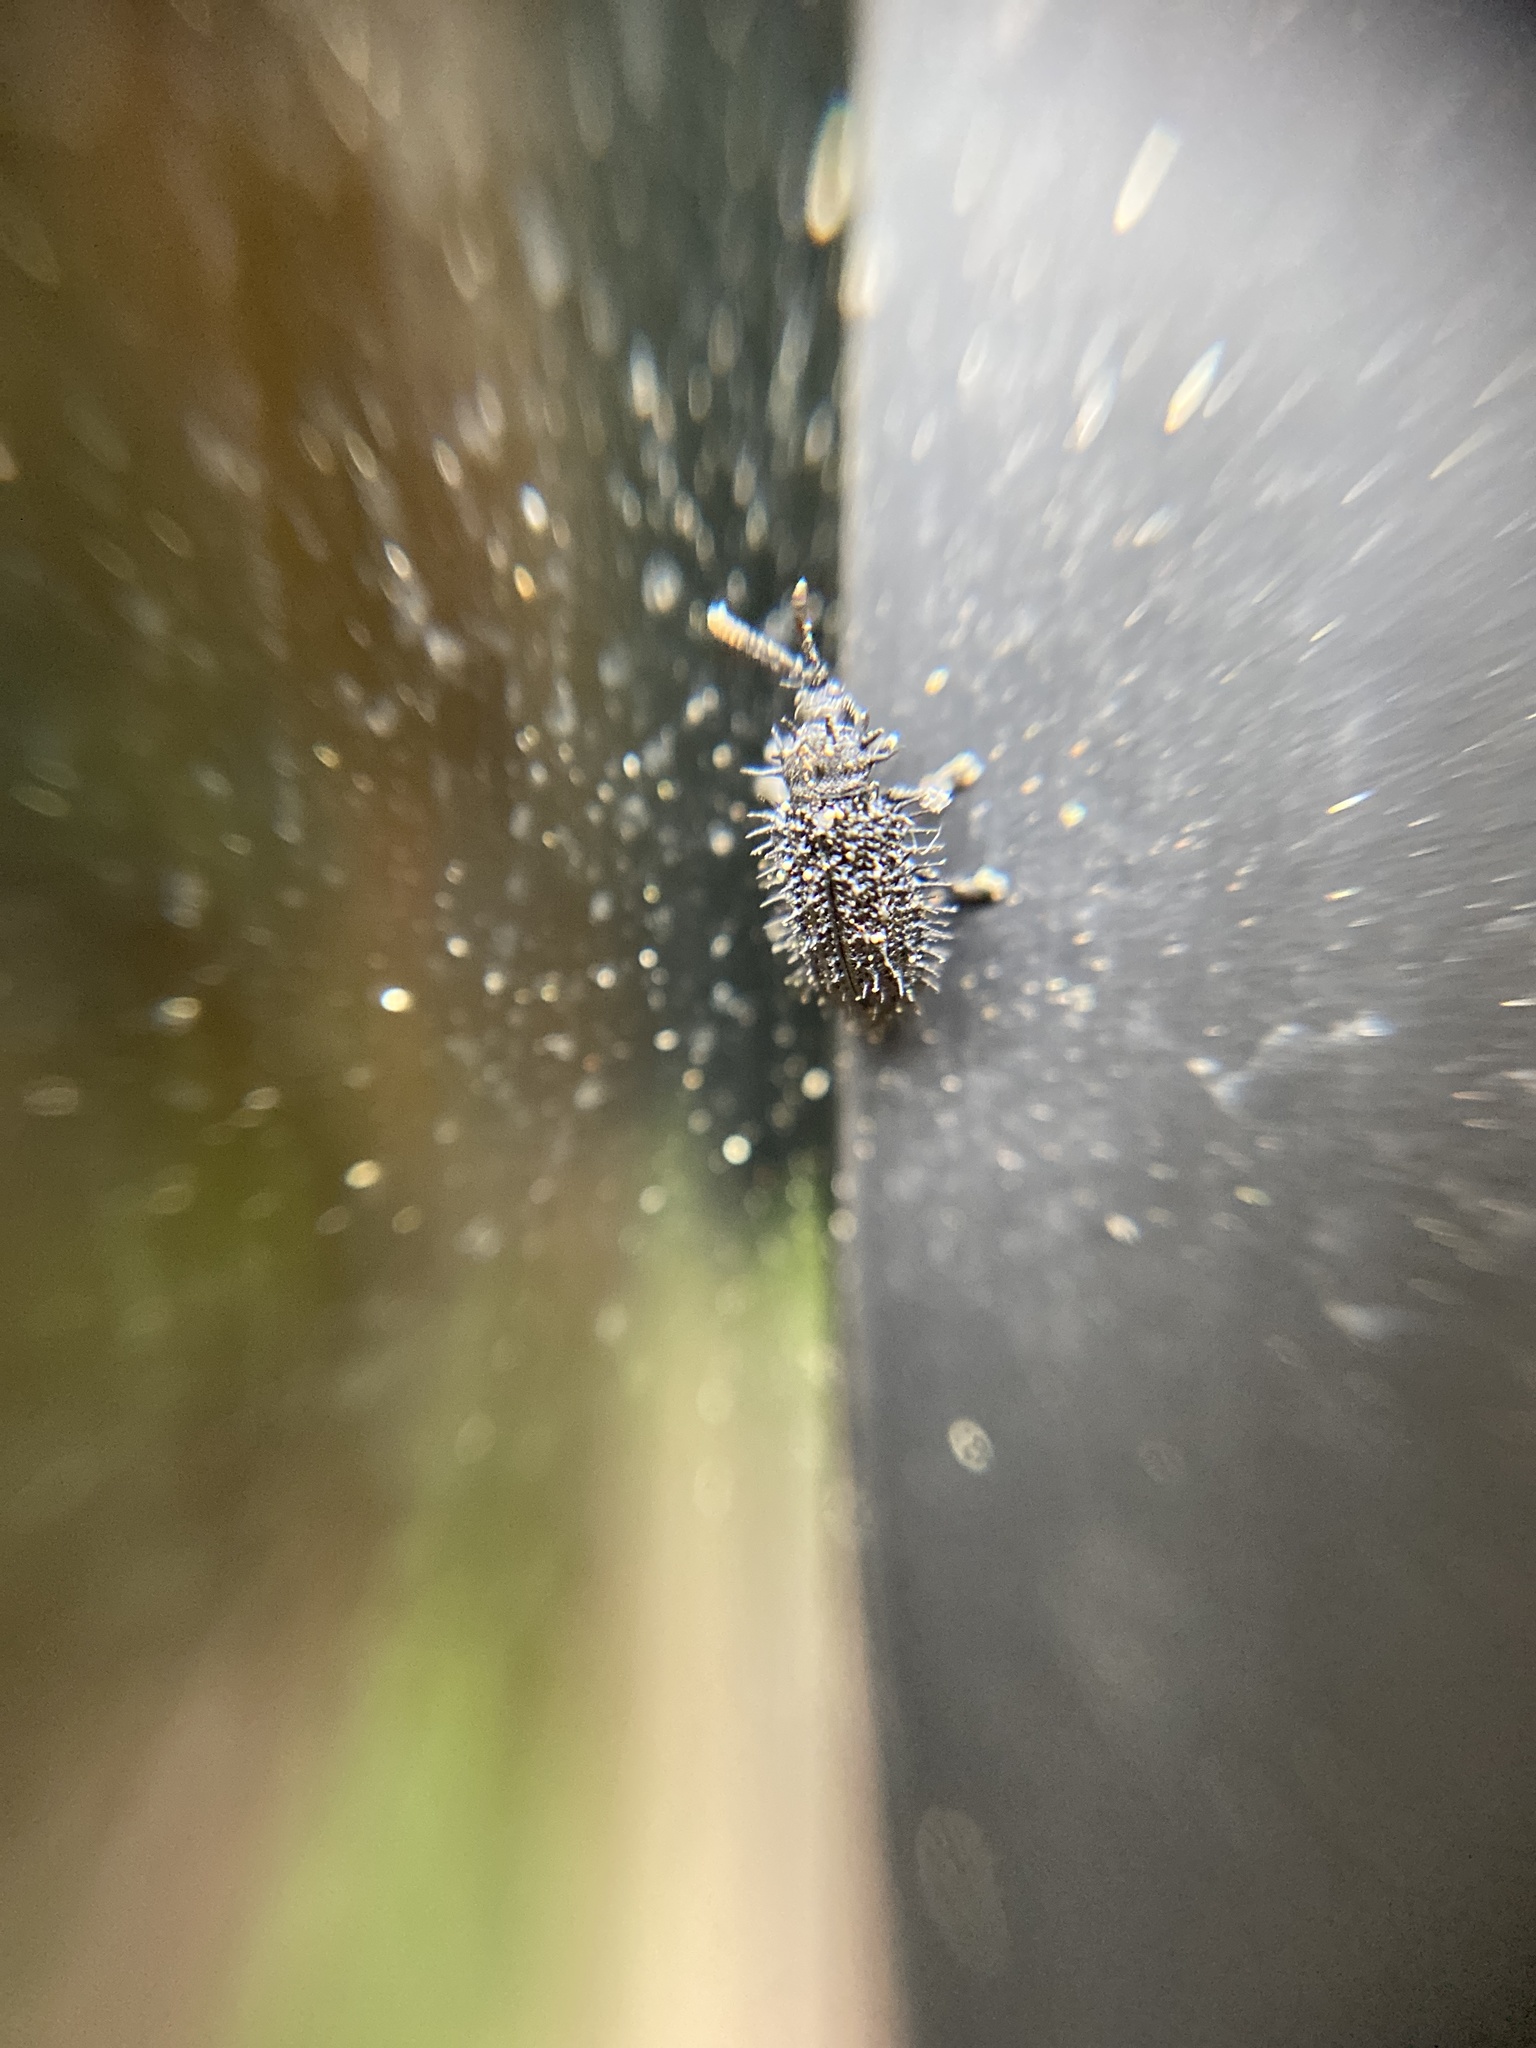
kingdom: Animalia
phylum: Arthropoda
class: Insecta
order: Coleoptera
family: Chrysomelidae
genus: Hispa
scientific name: Hispa atra
